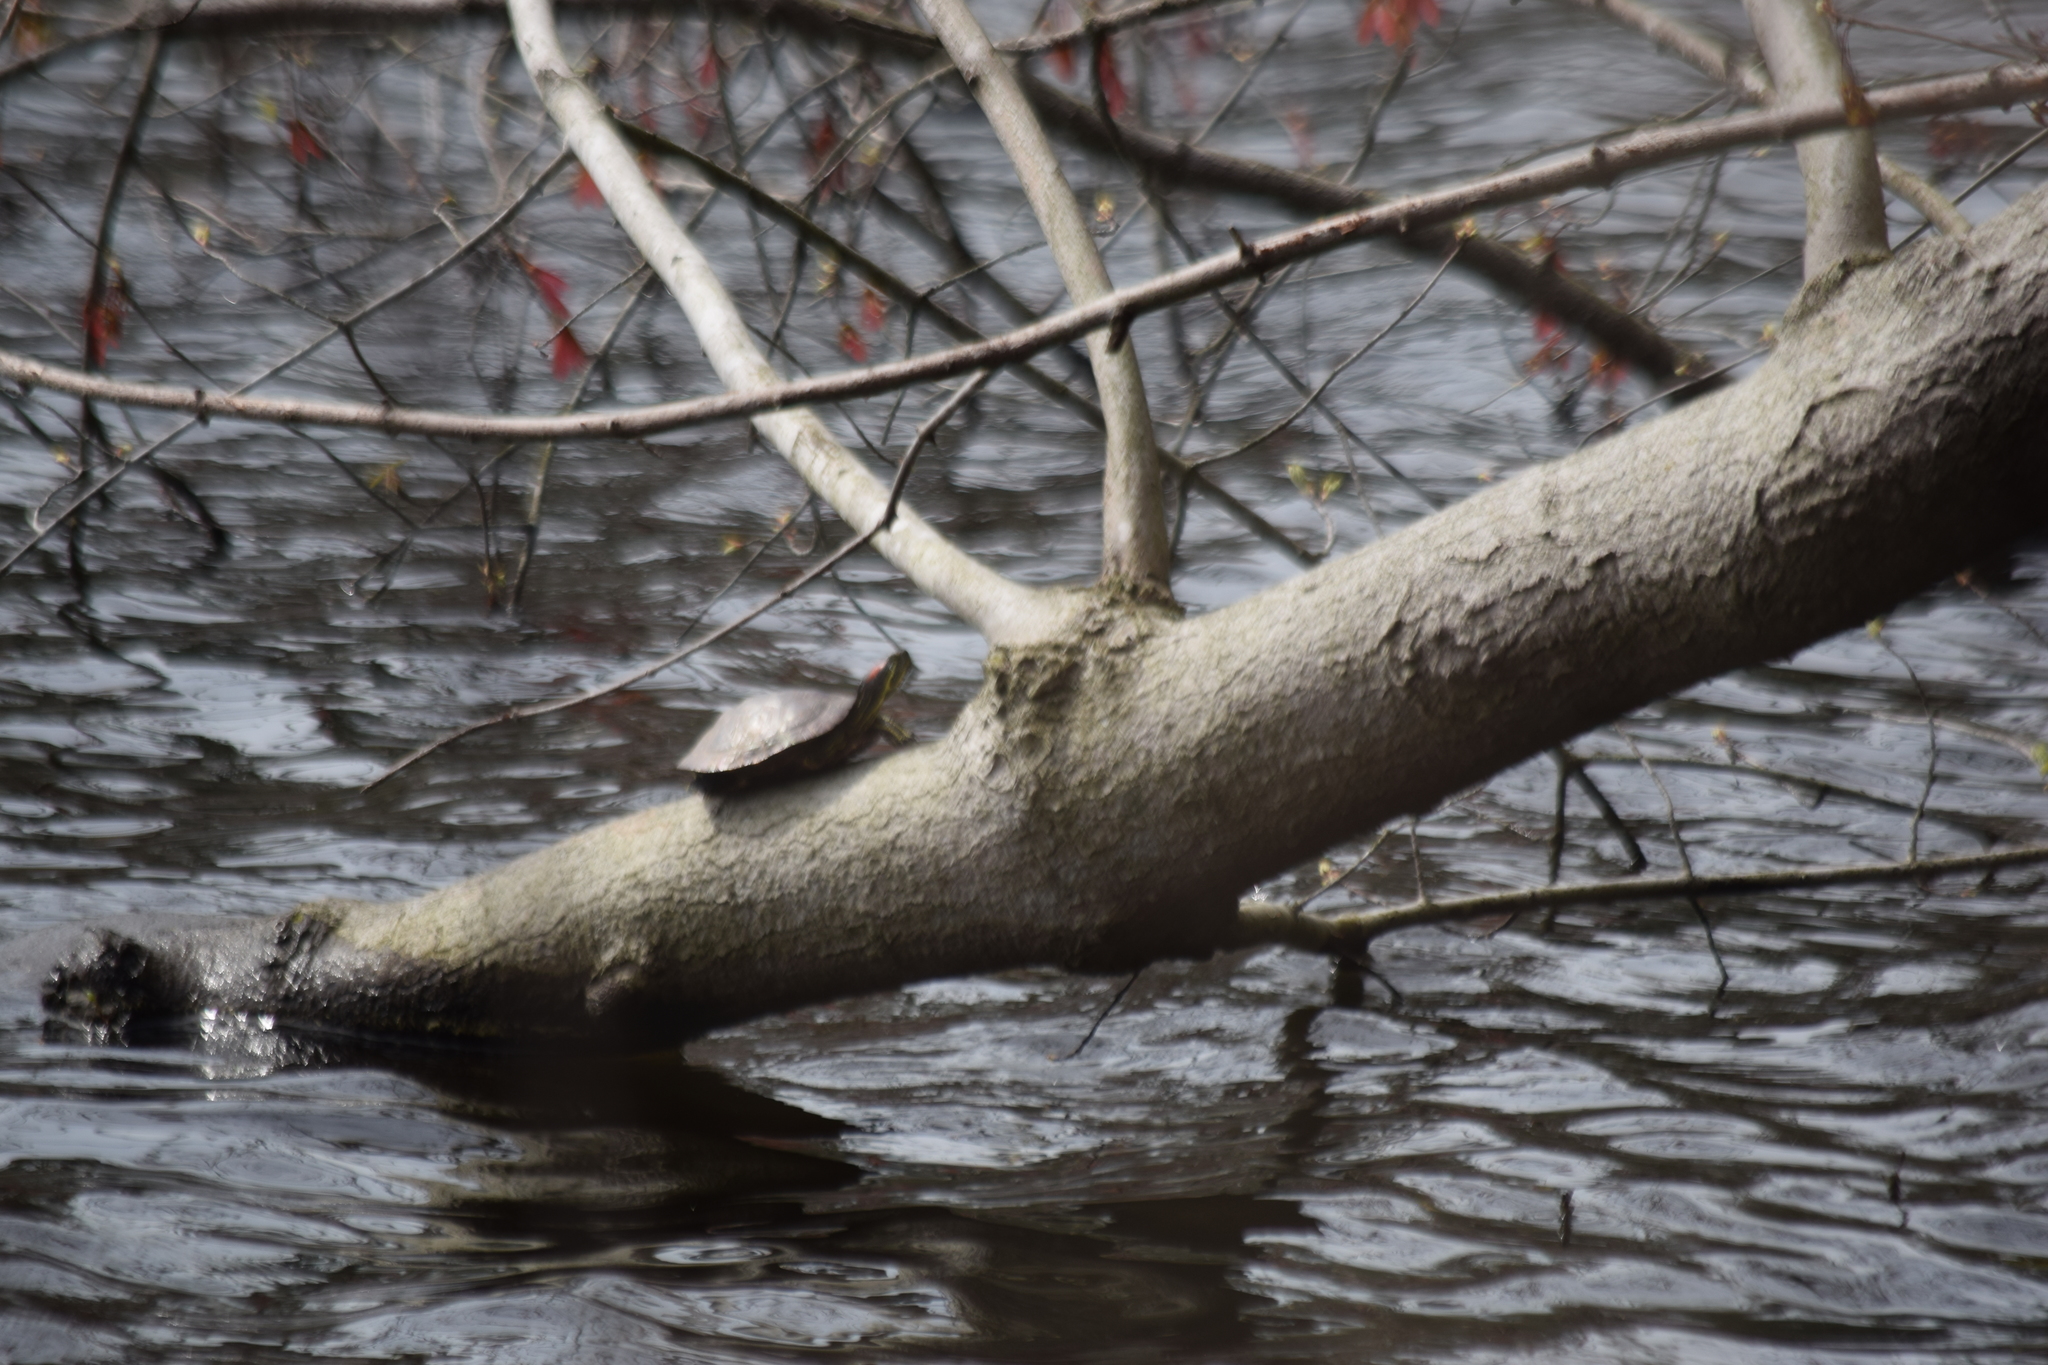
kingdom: Animalia
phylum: Chordata
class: Testudines
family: Emydidae
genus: Trachemys
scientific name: Trachemys scripta
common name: Slider
